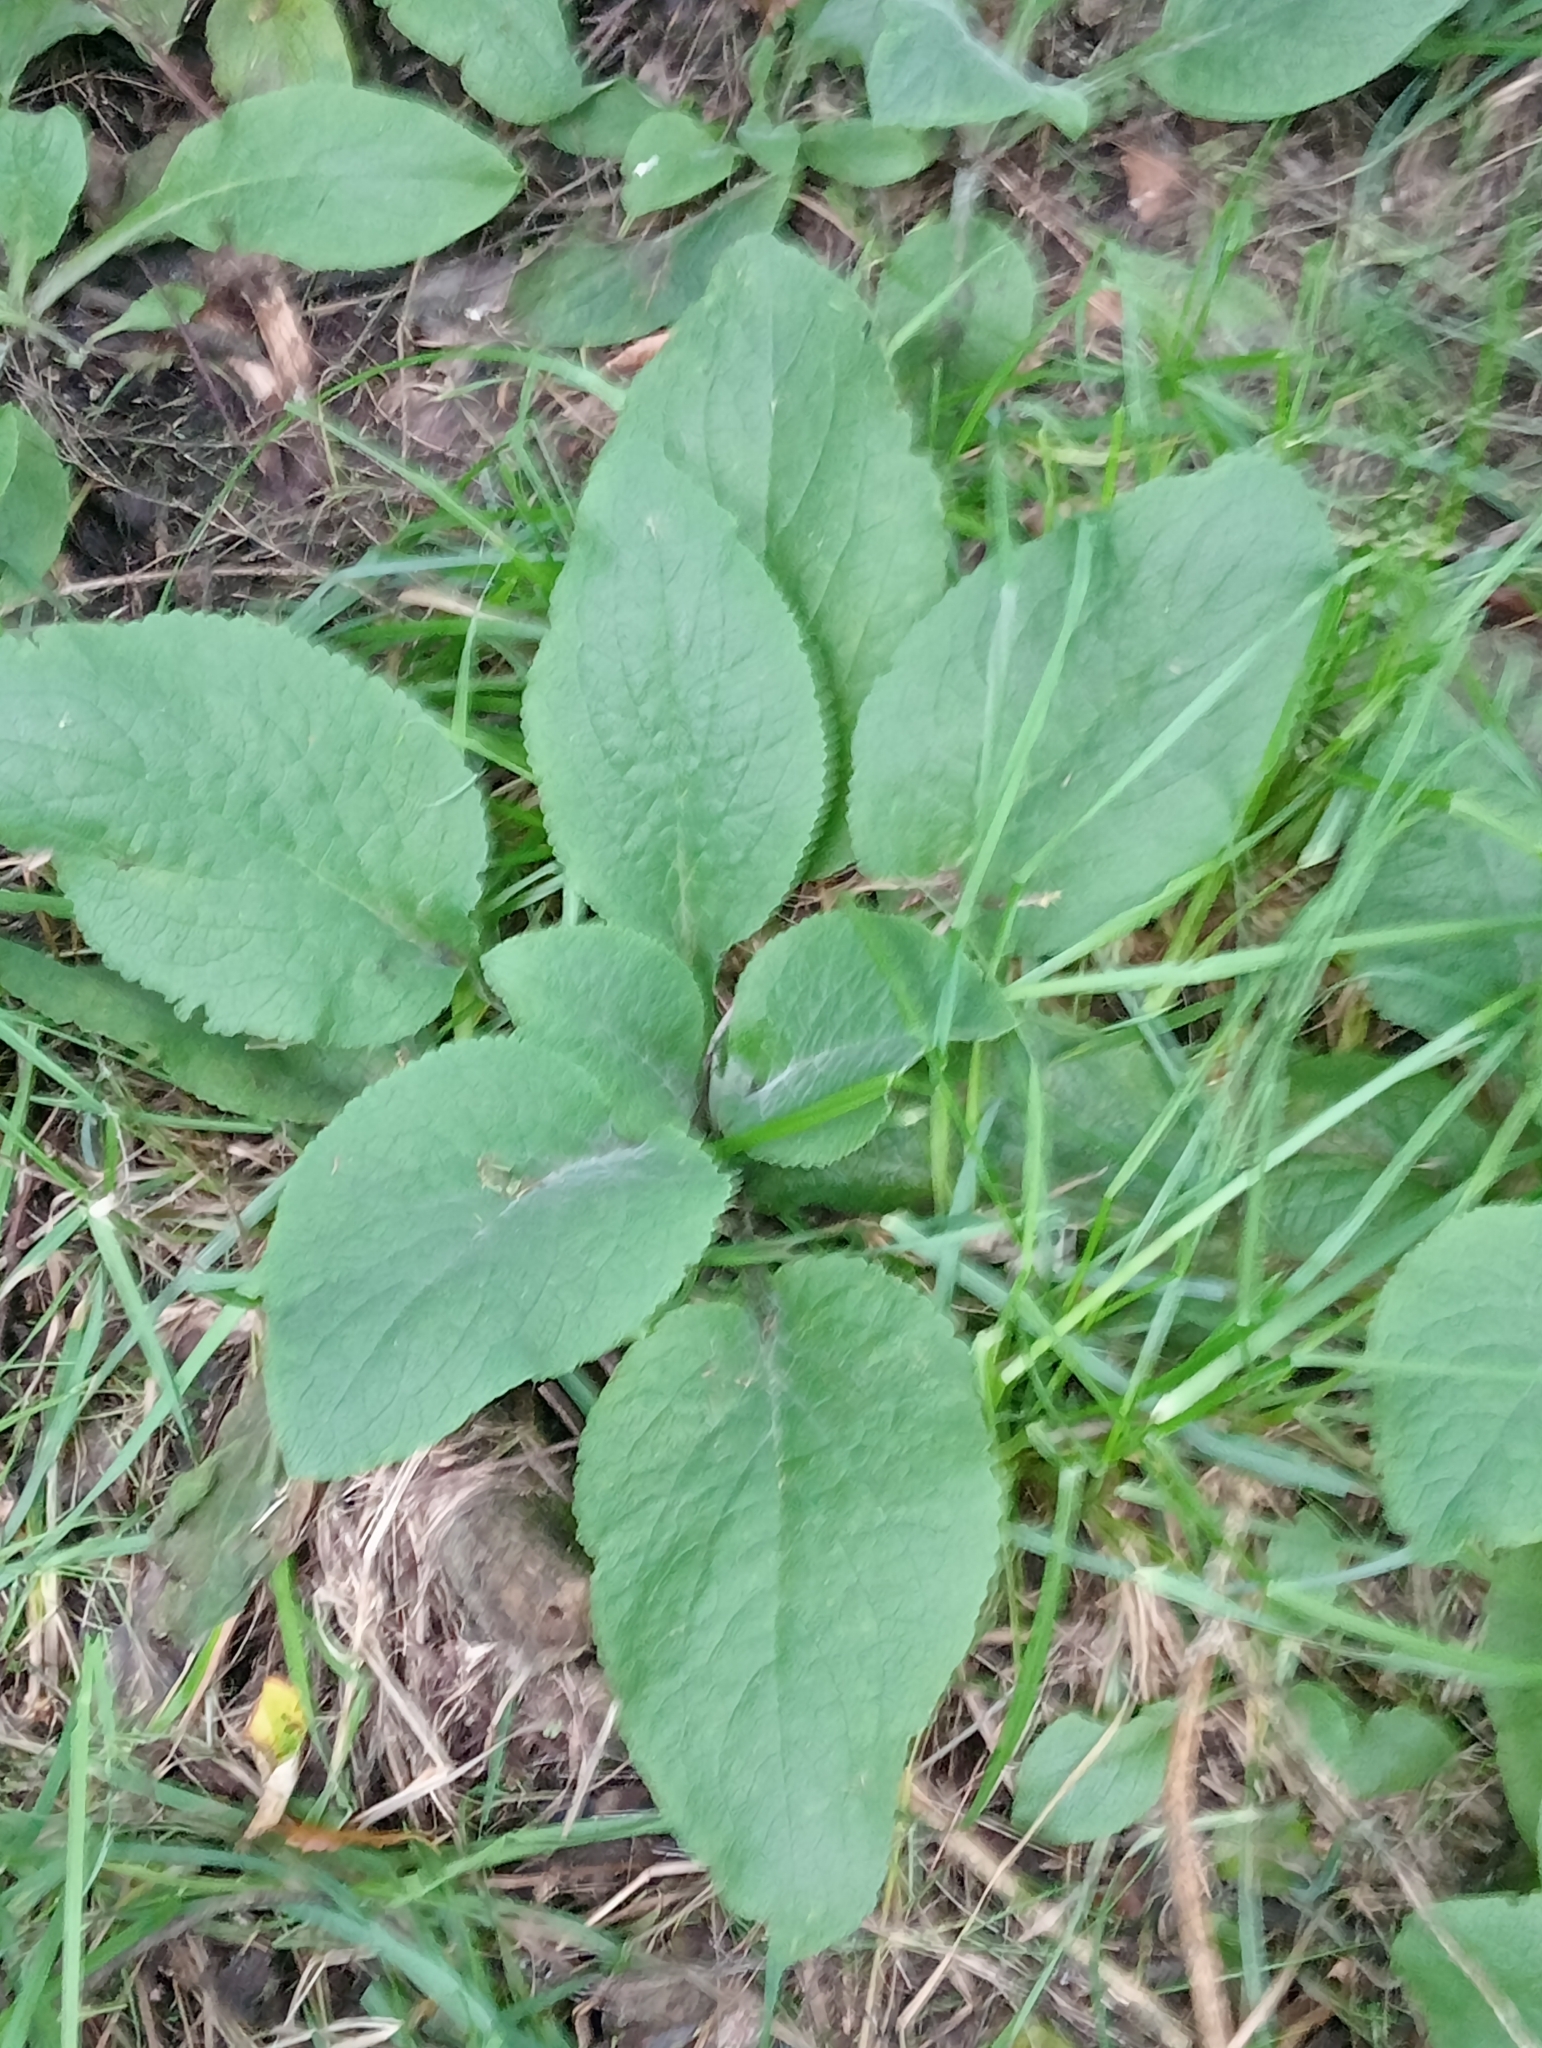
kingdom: Plantae
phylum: Tracheophyta
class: Magnoliopsida
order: Lamiales
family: Plantaginaceae
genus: Digitalis
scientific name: Digitalis purpurea
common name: Foxglove
